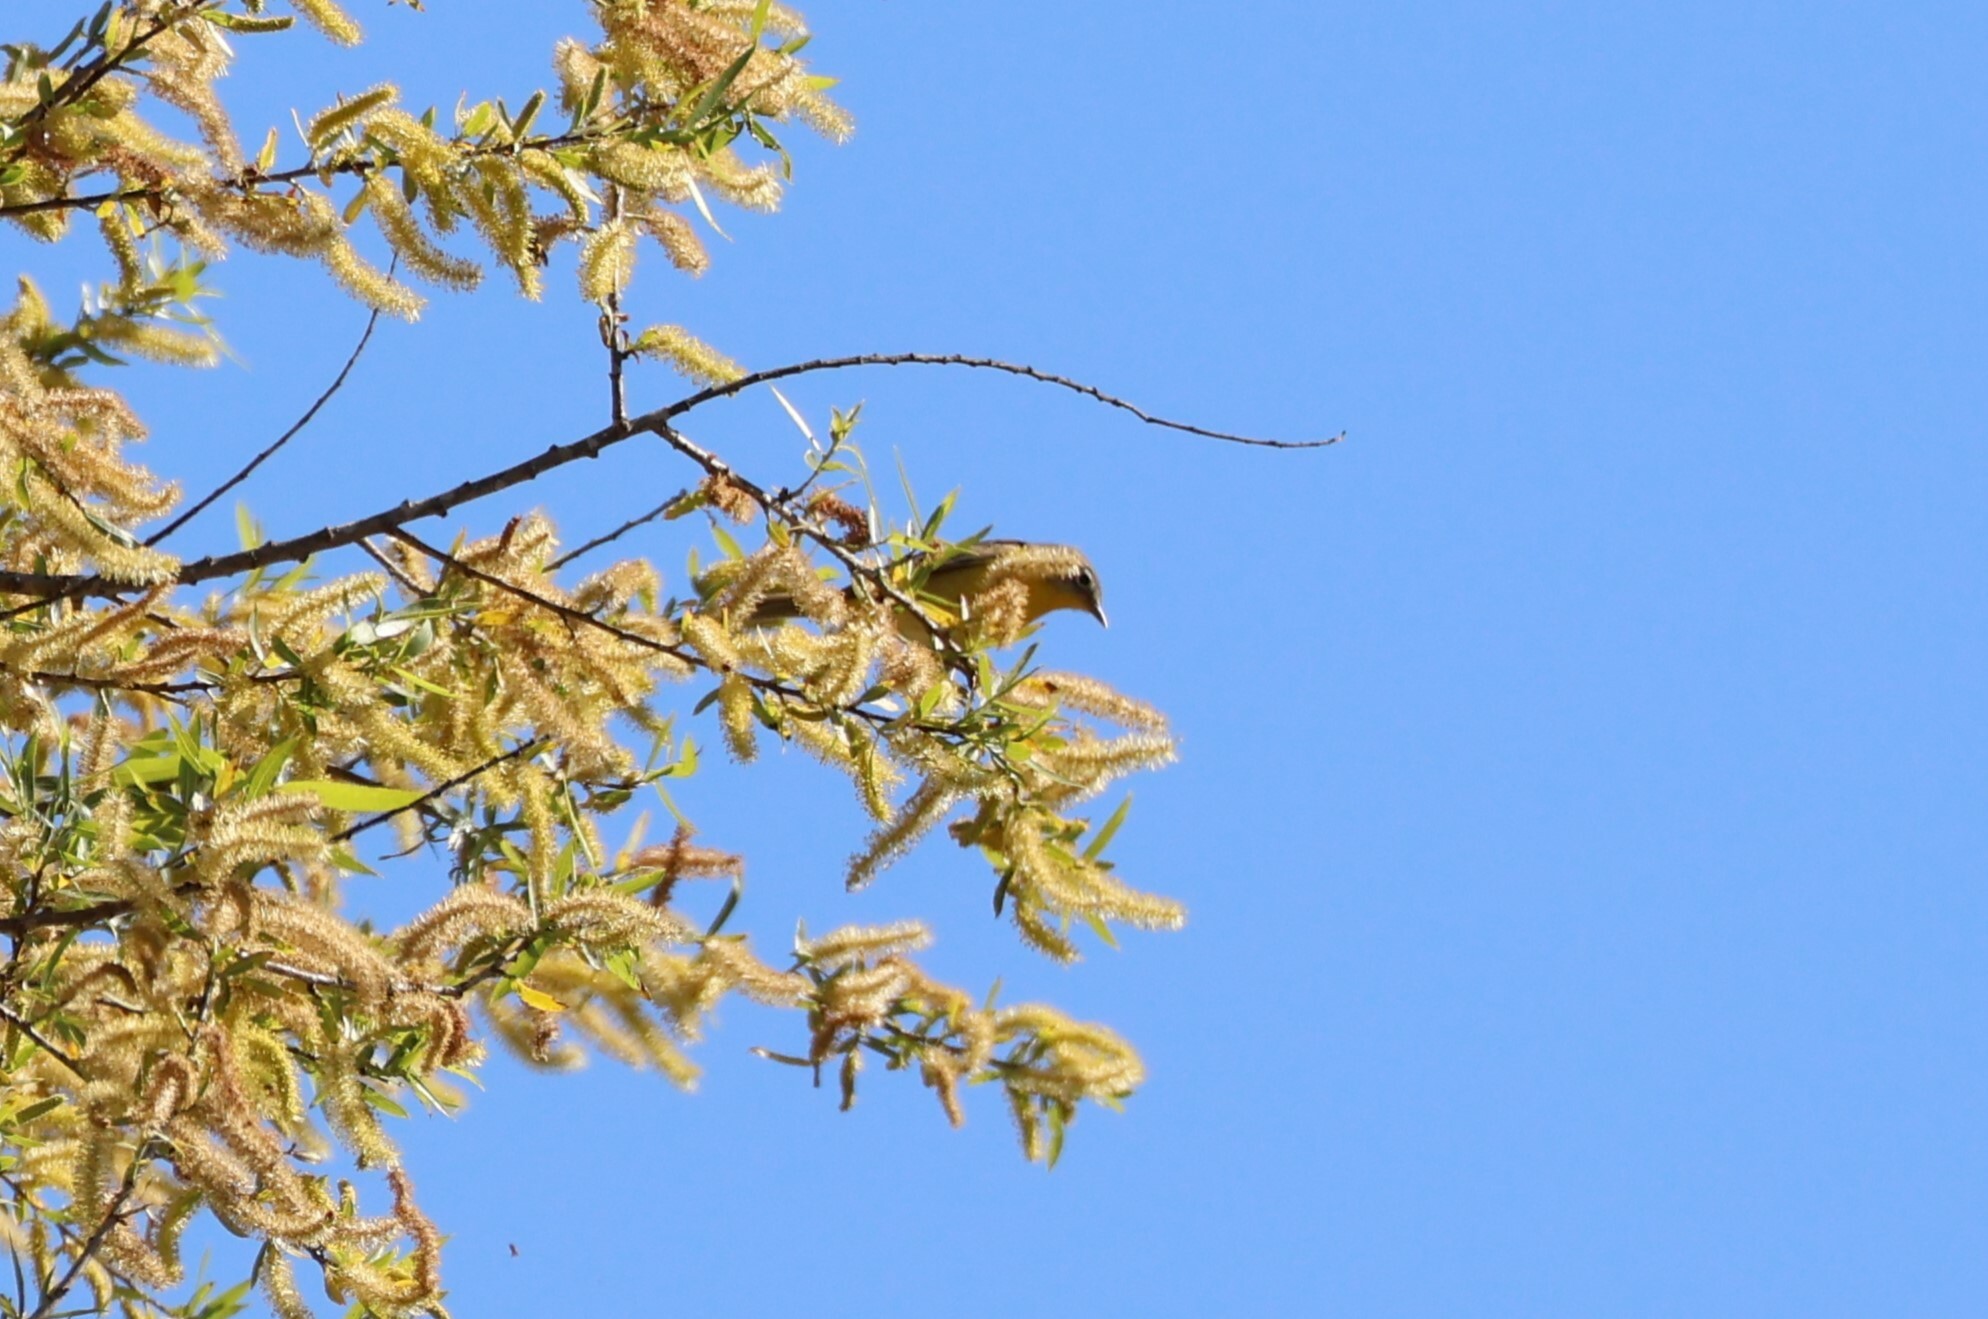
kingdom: Animalia
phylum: Chordata
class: Aves
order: Passeriformes
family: Parulidae
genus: Leiothlypis
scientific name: Leiothlypis ruficapilla
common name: Nashville warbler
